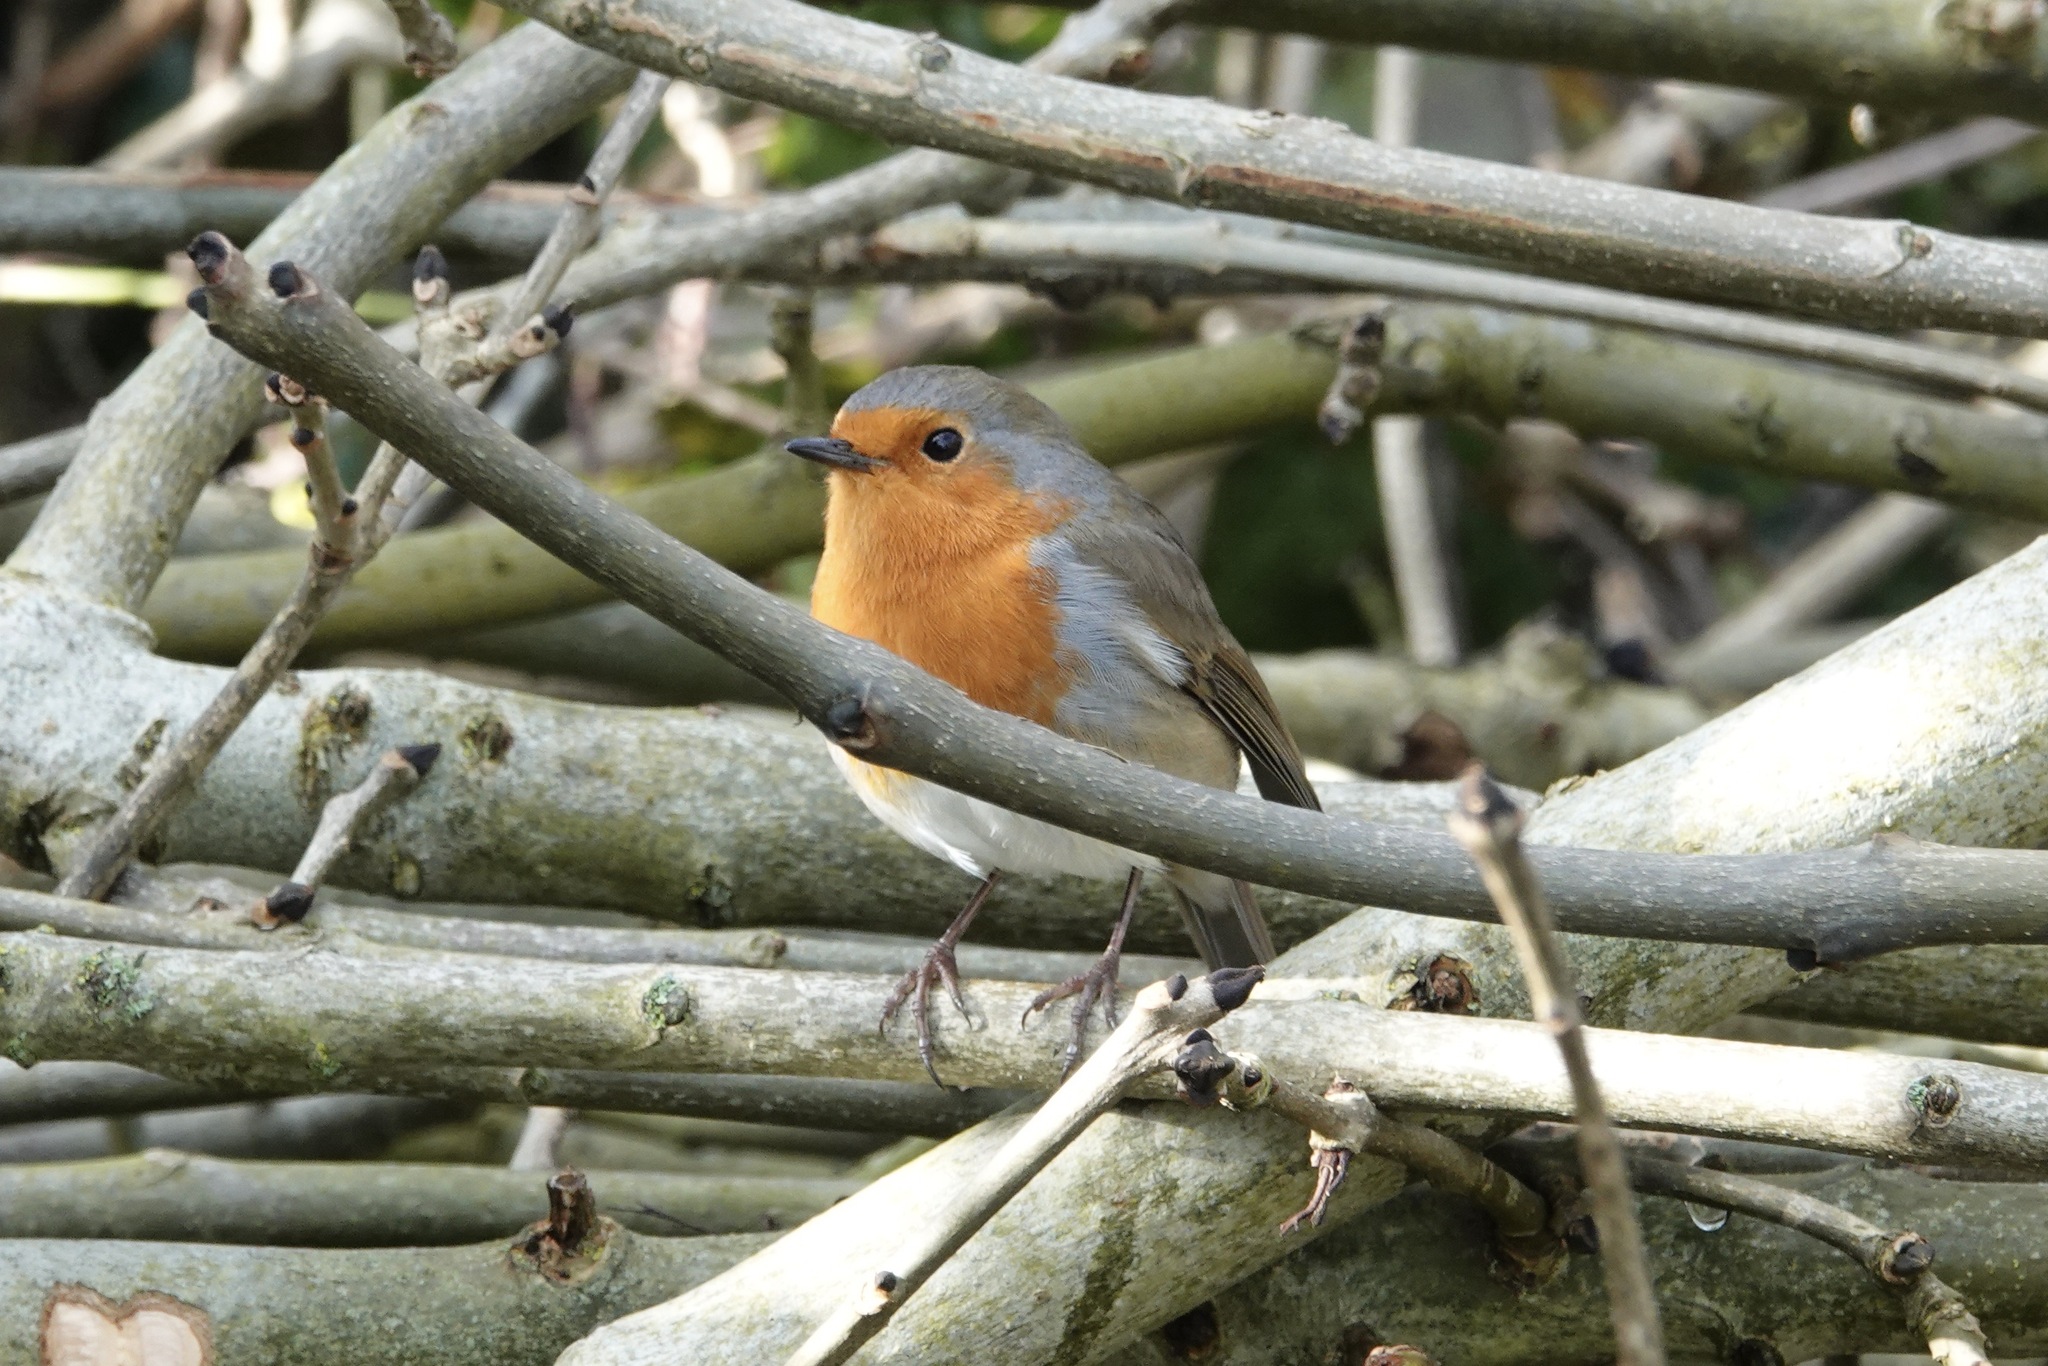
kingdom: Animalia
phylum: Chordata
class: Aves
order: Passeriformes
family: Muscicapidae
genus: Erithacus
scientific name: Erithacus rubecula
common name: European robin
